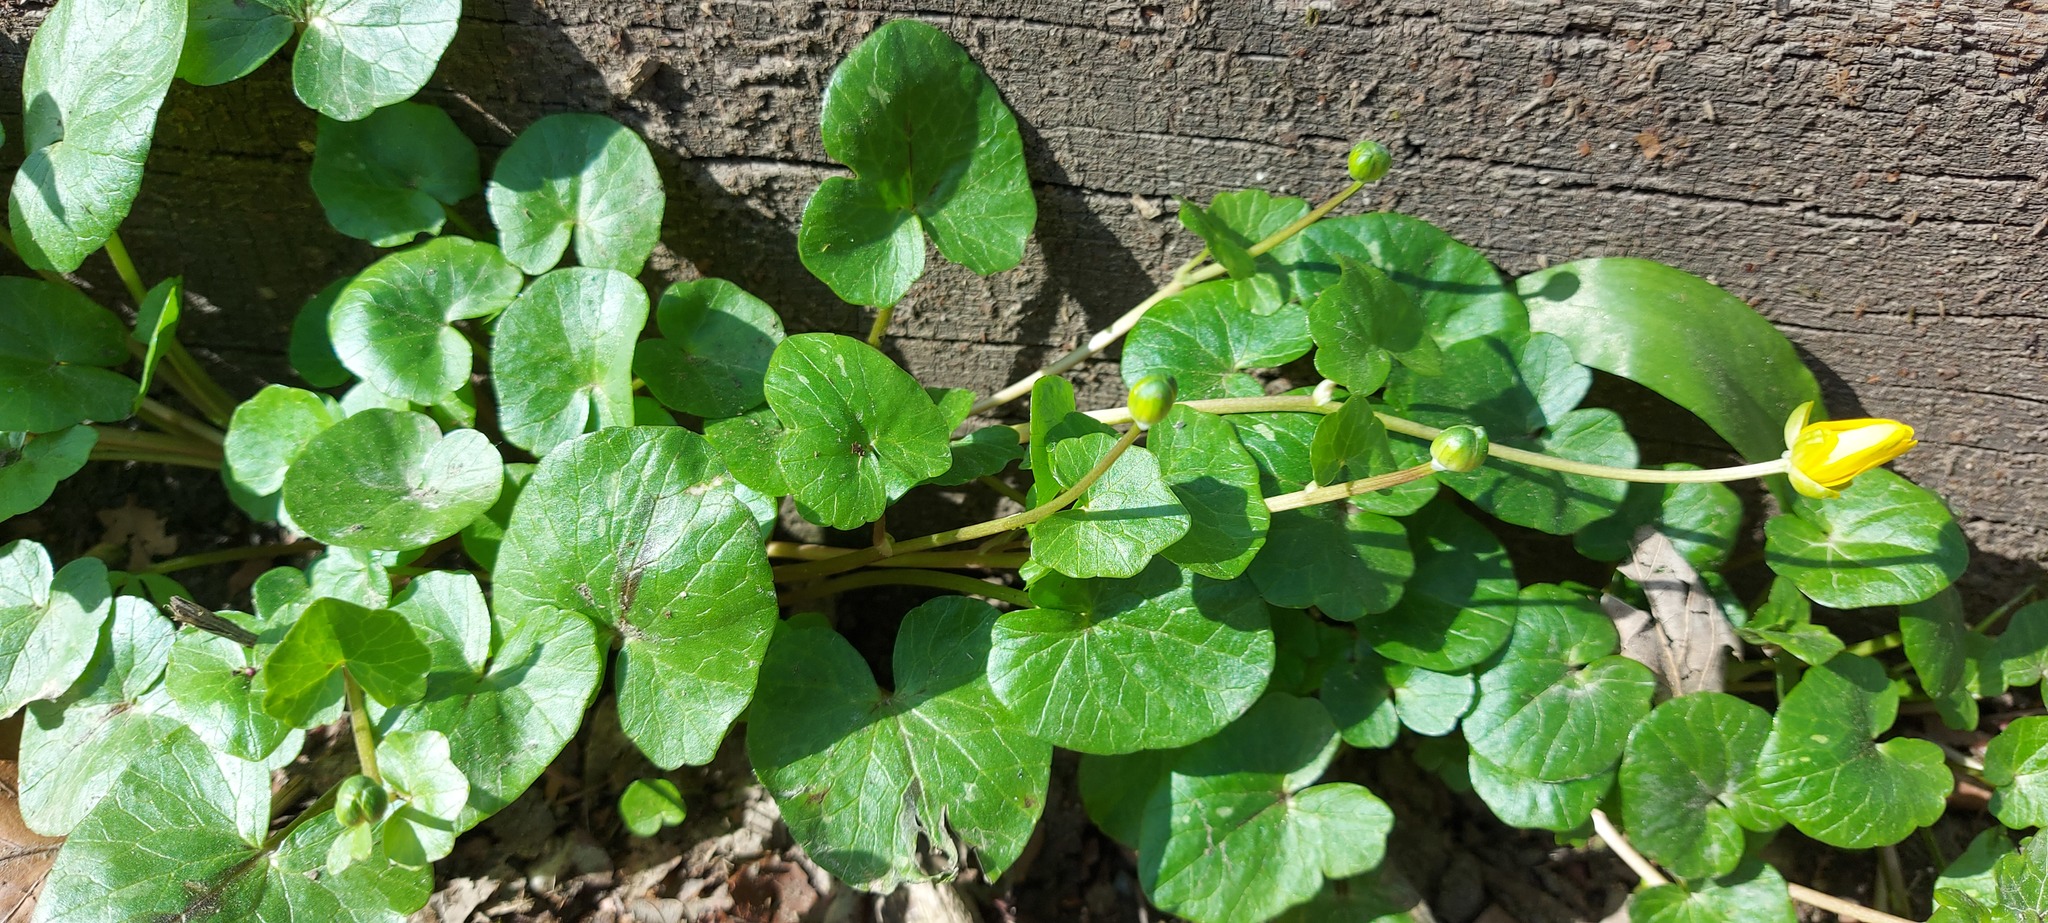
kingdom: Plantae
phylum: Tracheophyta
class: Magnoliopsida
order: Ranunculales
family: Ranunculaceae
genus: Ficaria
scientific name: Ficaria verna
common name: Lesser celandine
